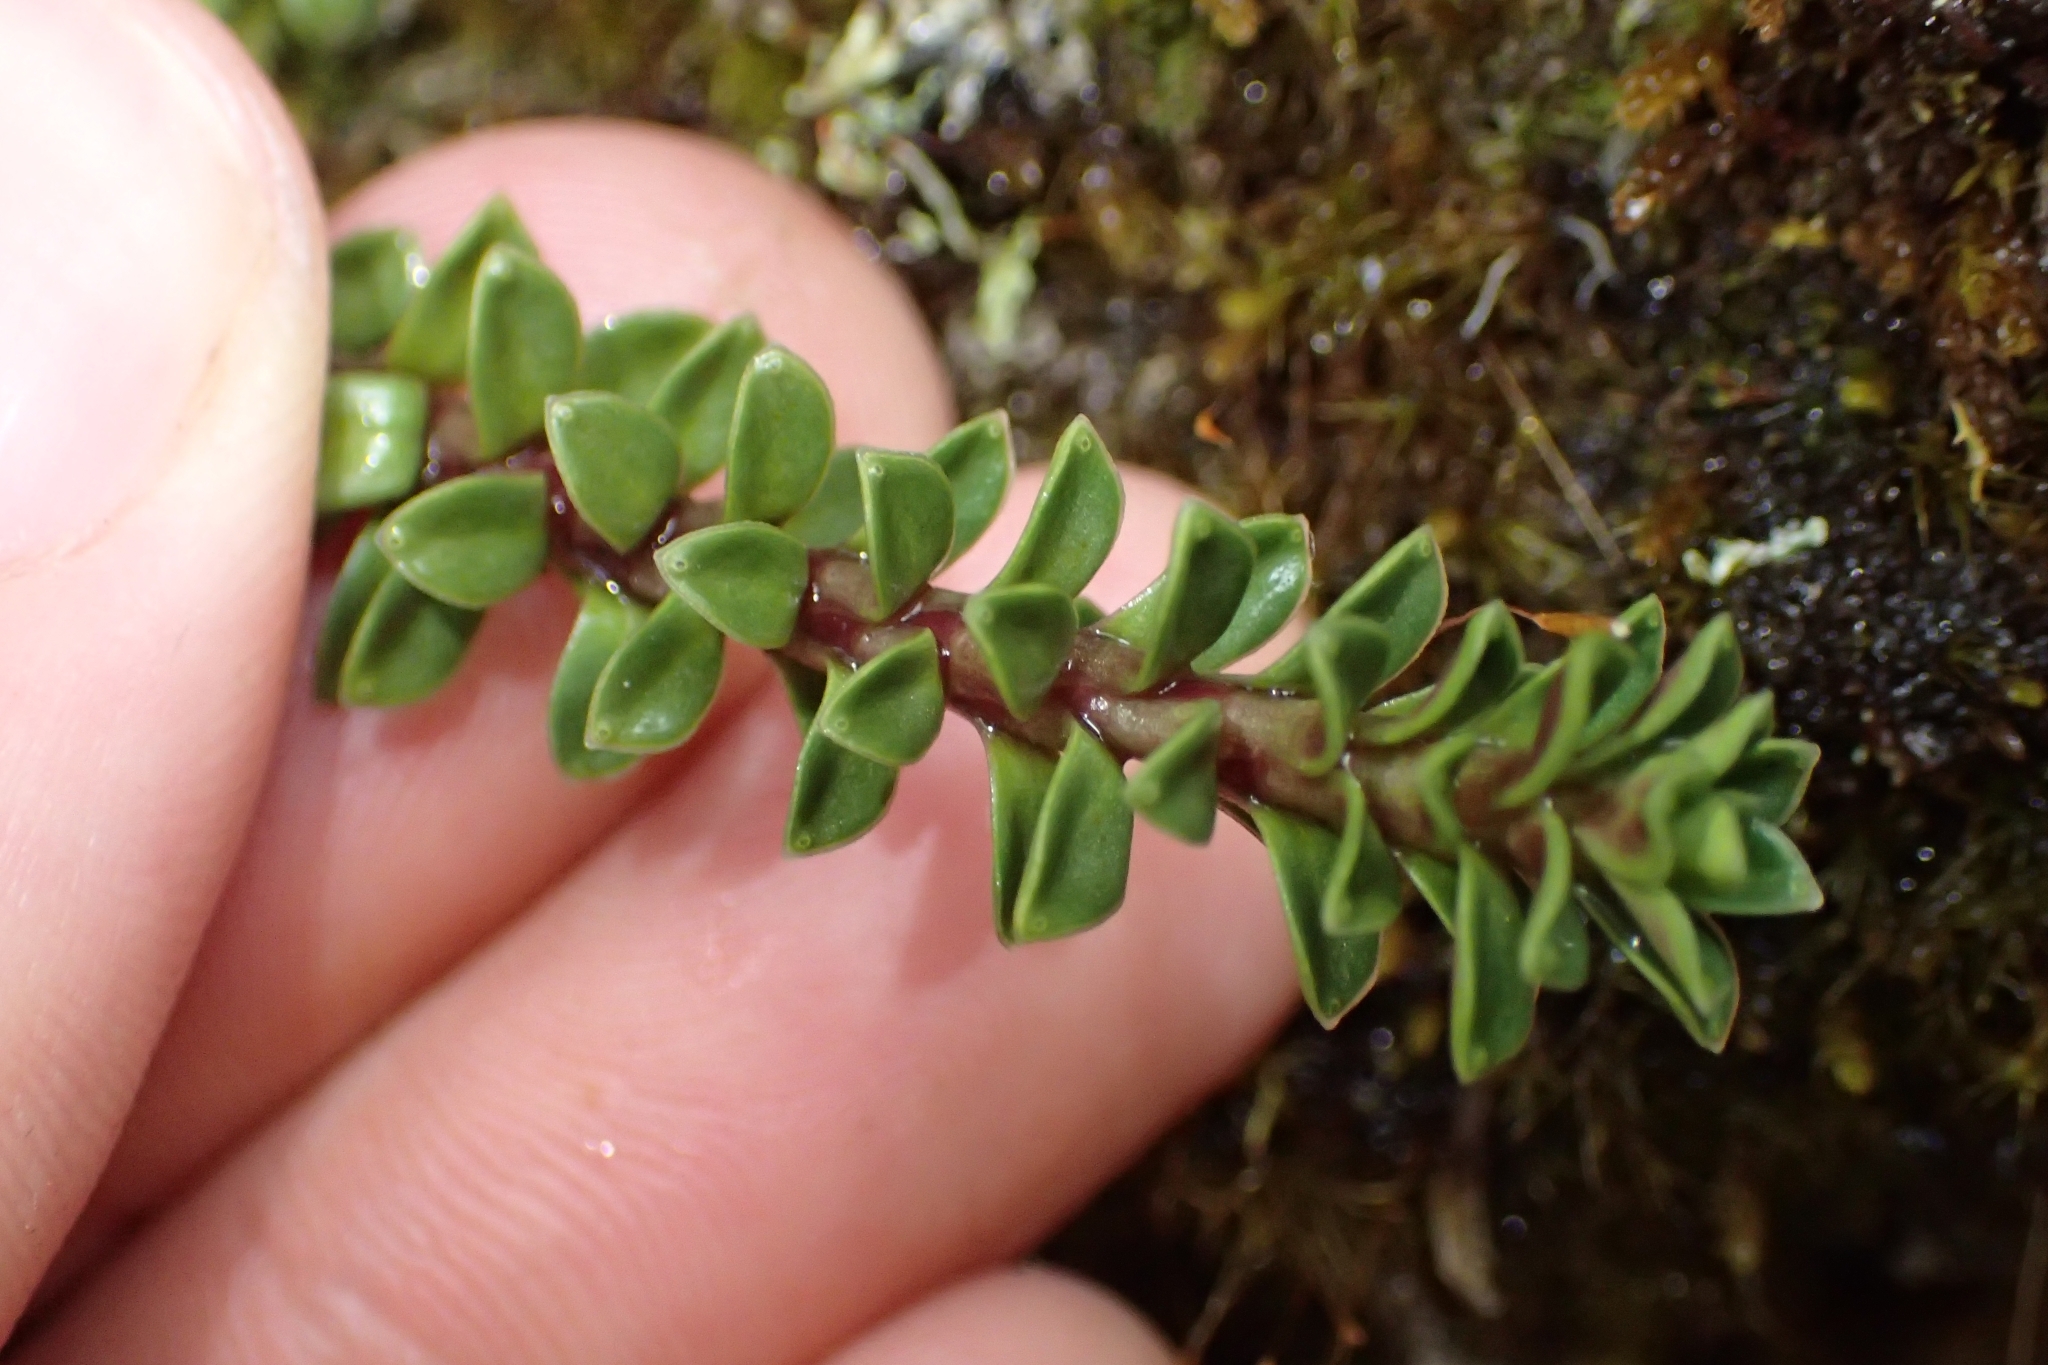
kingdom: Plantae
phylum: Tracheophyta
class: Magnoliopsida
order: Asterales
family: Stylidiaceae
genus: Forstera
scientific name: Forstera purpurata
